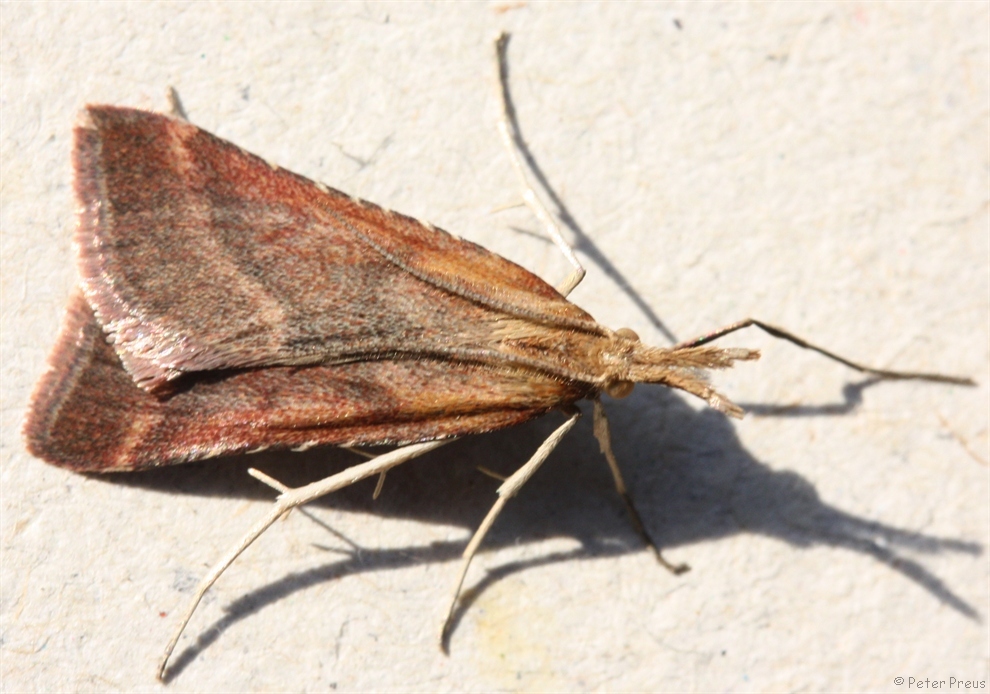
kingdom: Animalia
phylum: Arthropoda
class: Insecta
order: Lepidoptera
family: Pyralidae
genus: Synaphe
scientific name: Synaphe punctalis
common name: Long-legged tabby
